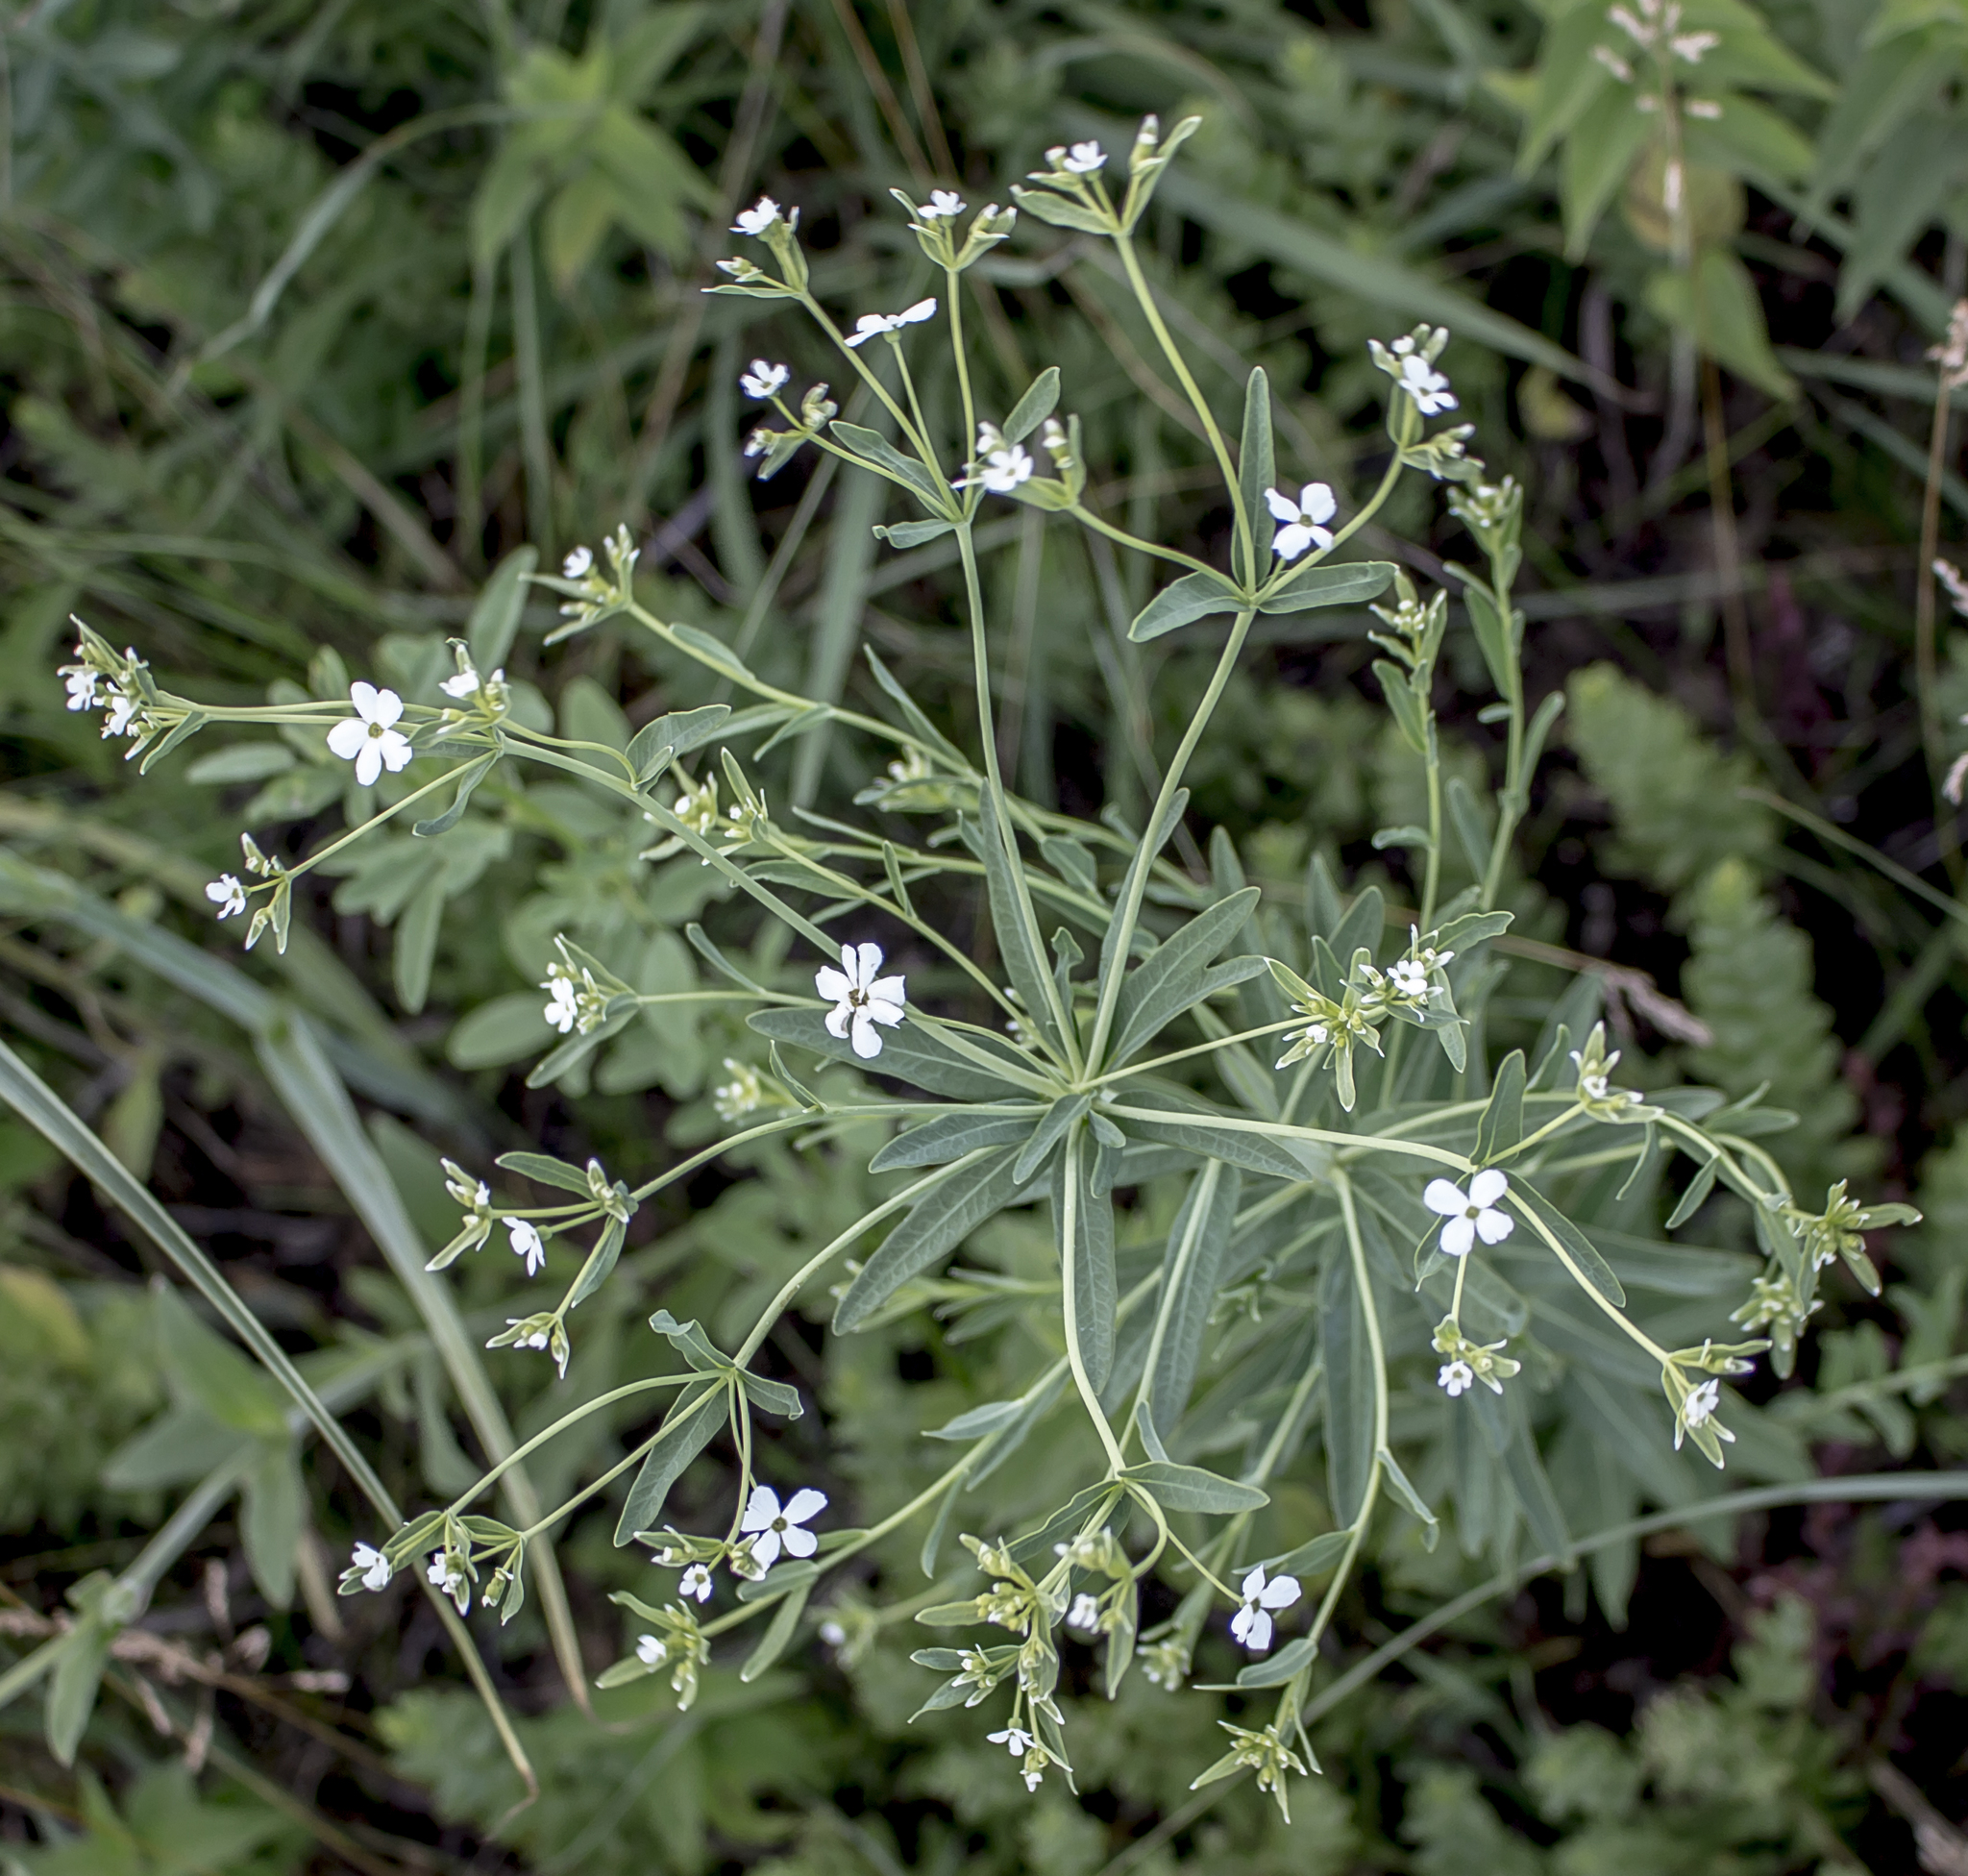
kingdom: Plantae
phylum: Tracheophyta
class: Magnoliopsida
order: Malpighiales
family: Euphorbiaceae
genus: Euphorbia
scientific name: Euphorbia corollata
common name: Flowering spurge
